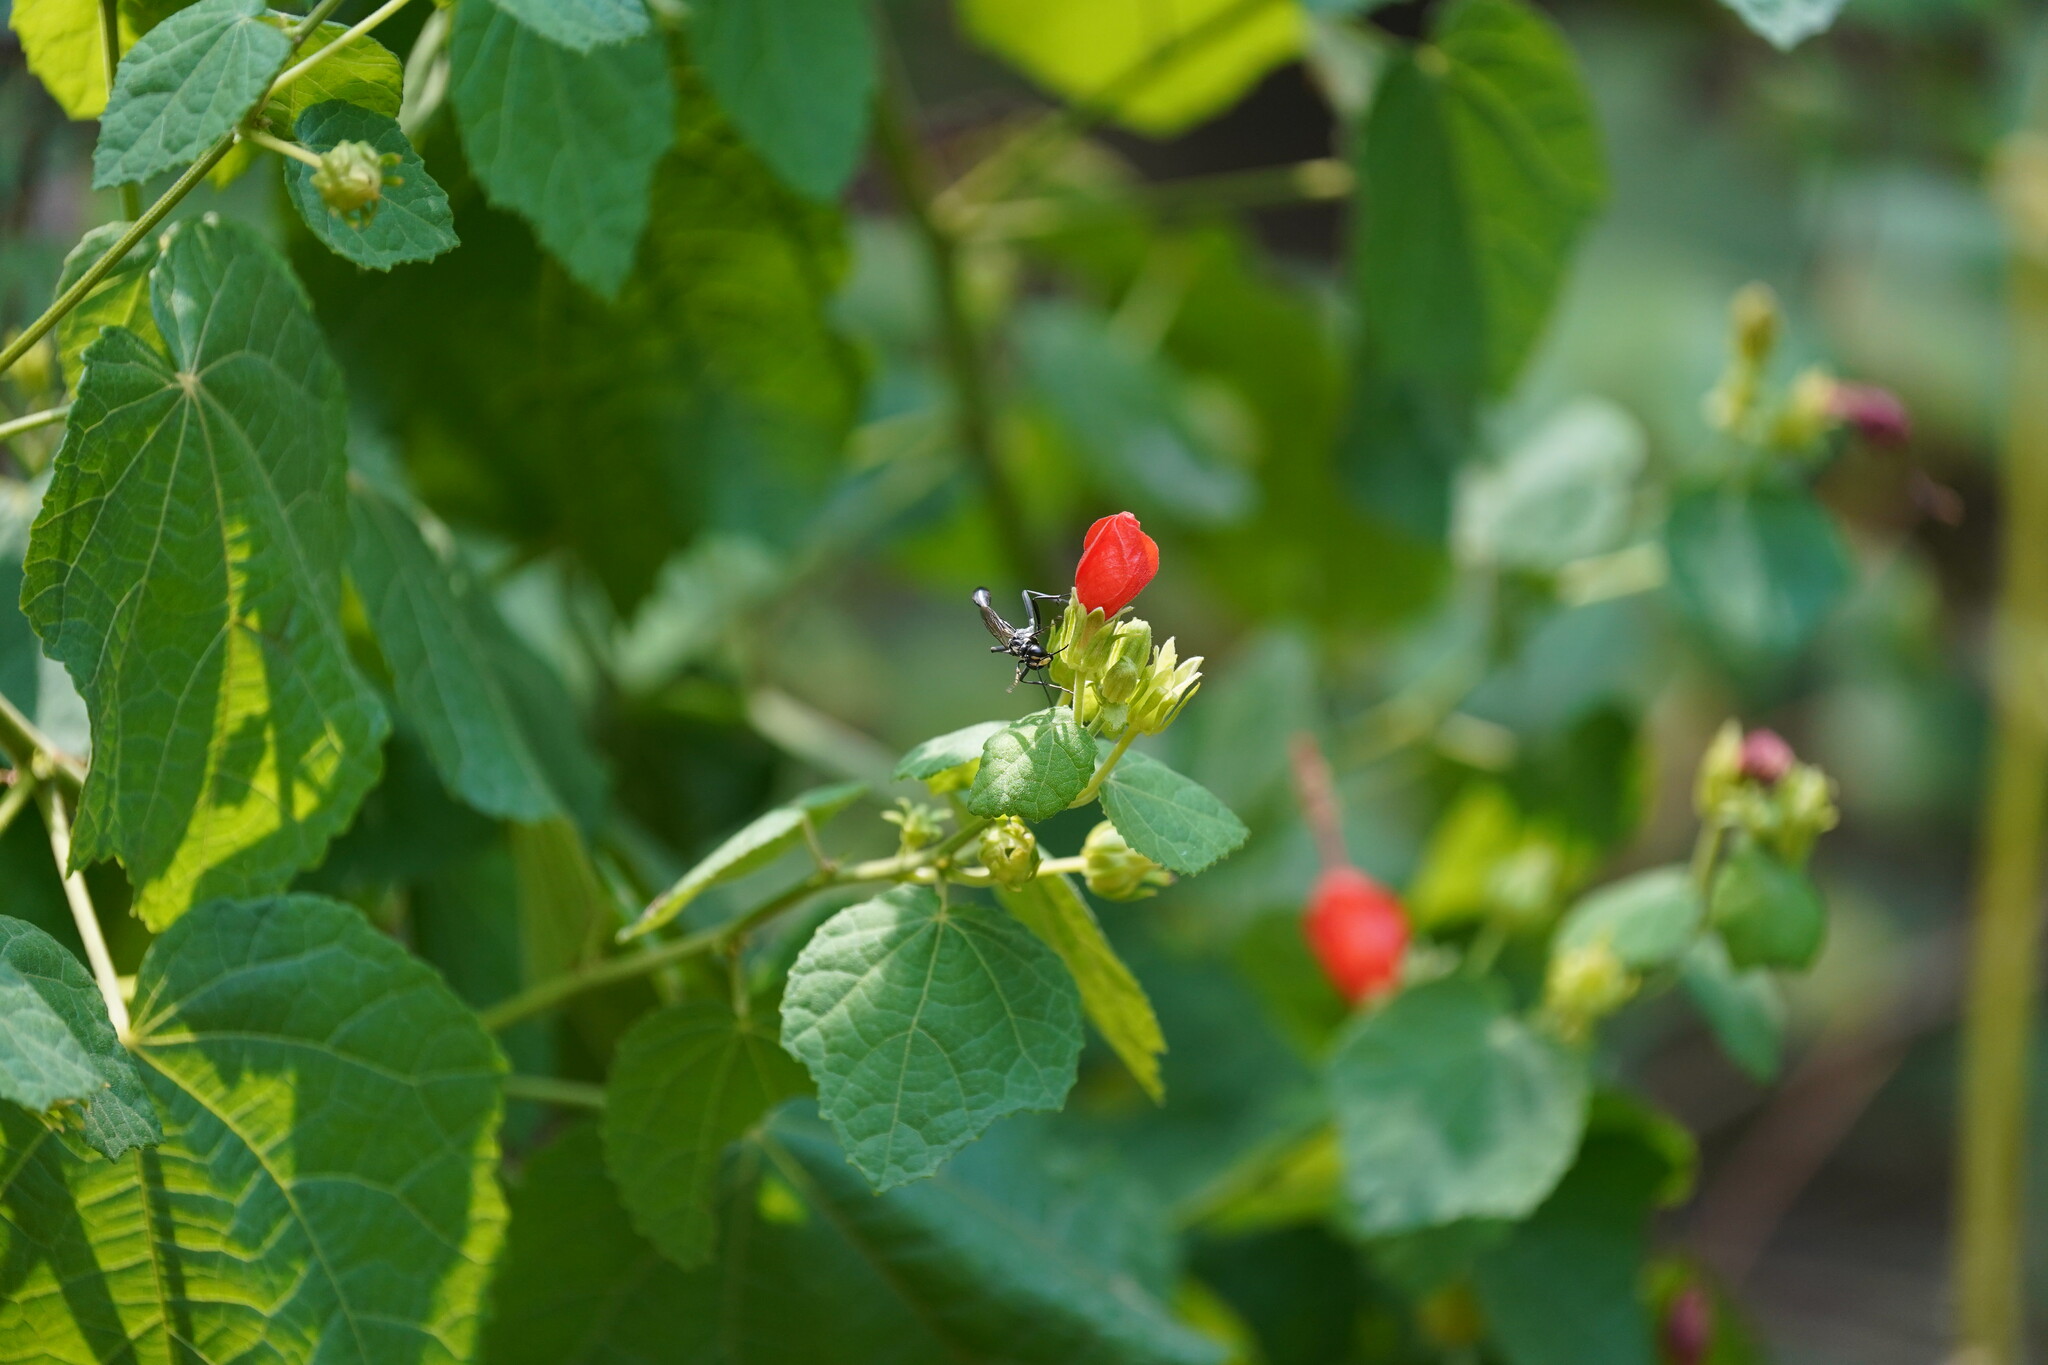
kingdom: Animalia
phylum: Arthropoda
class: Insecta
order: Hymenoptera
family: Sphecidae
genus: Eremnophila
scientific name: Eremnophila aureonotata
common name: Gold-marked thread-waisted wasp
